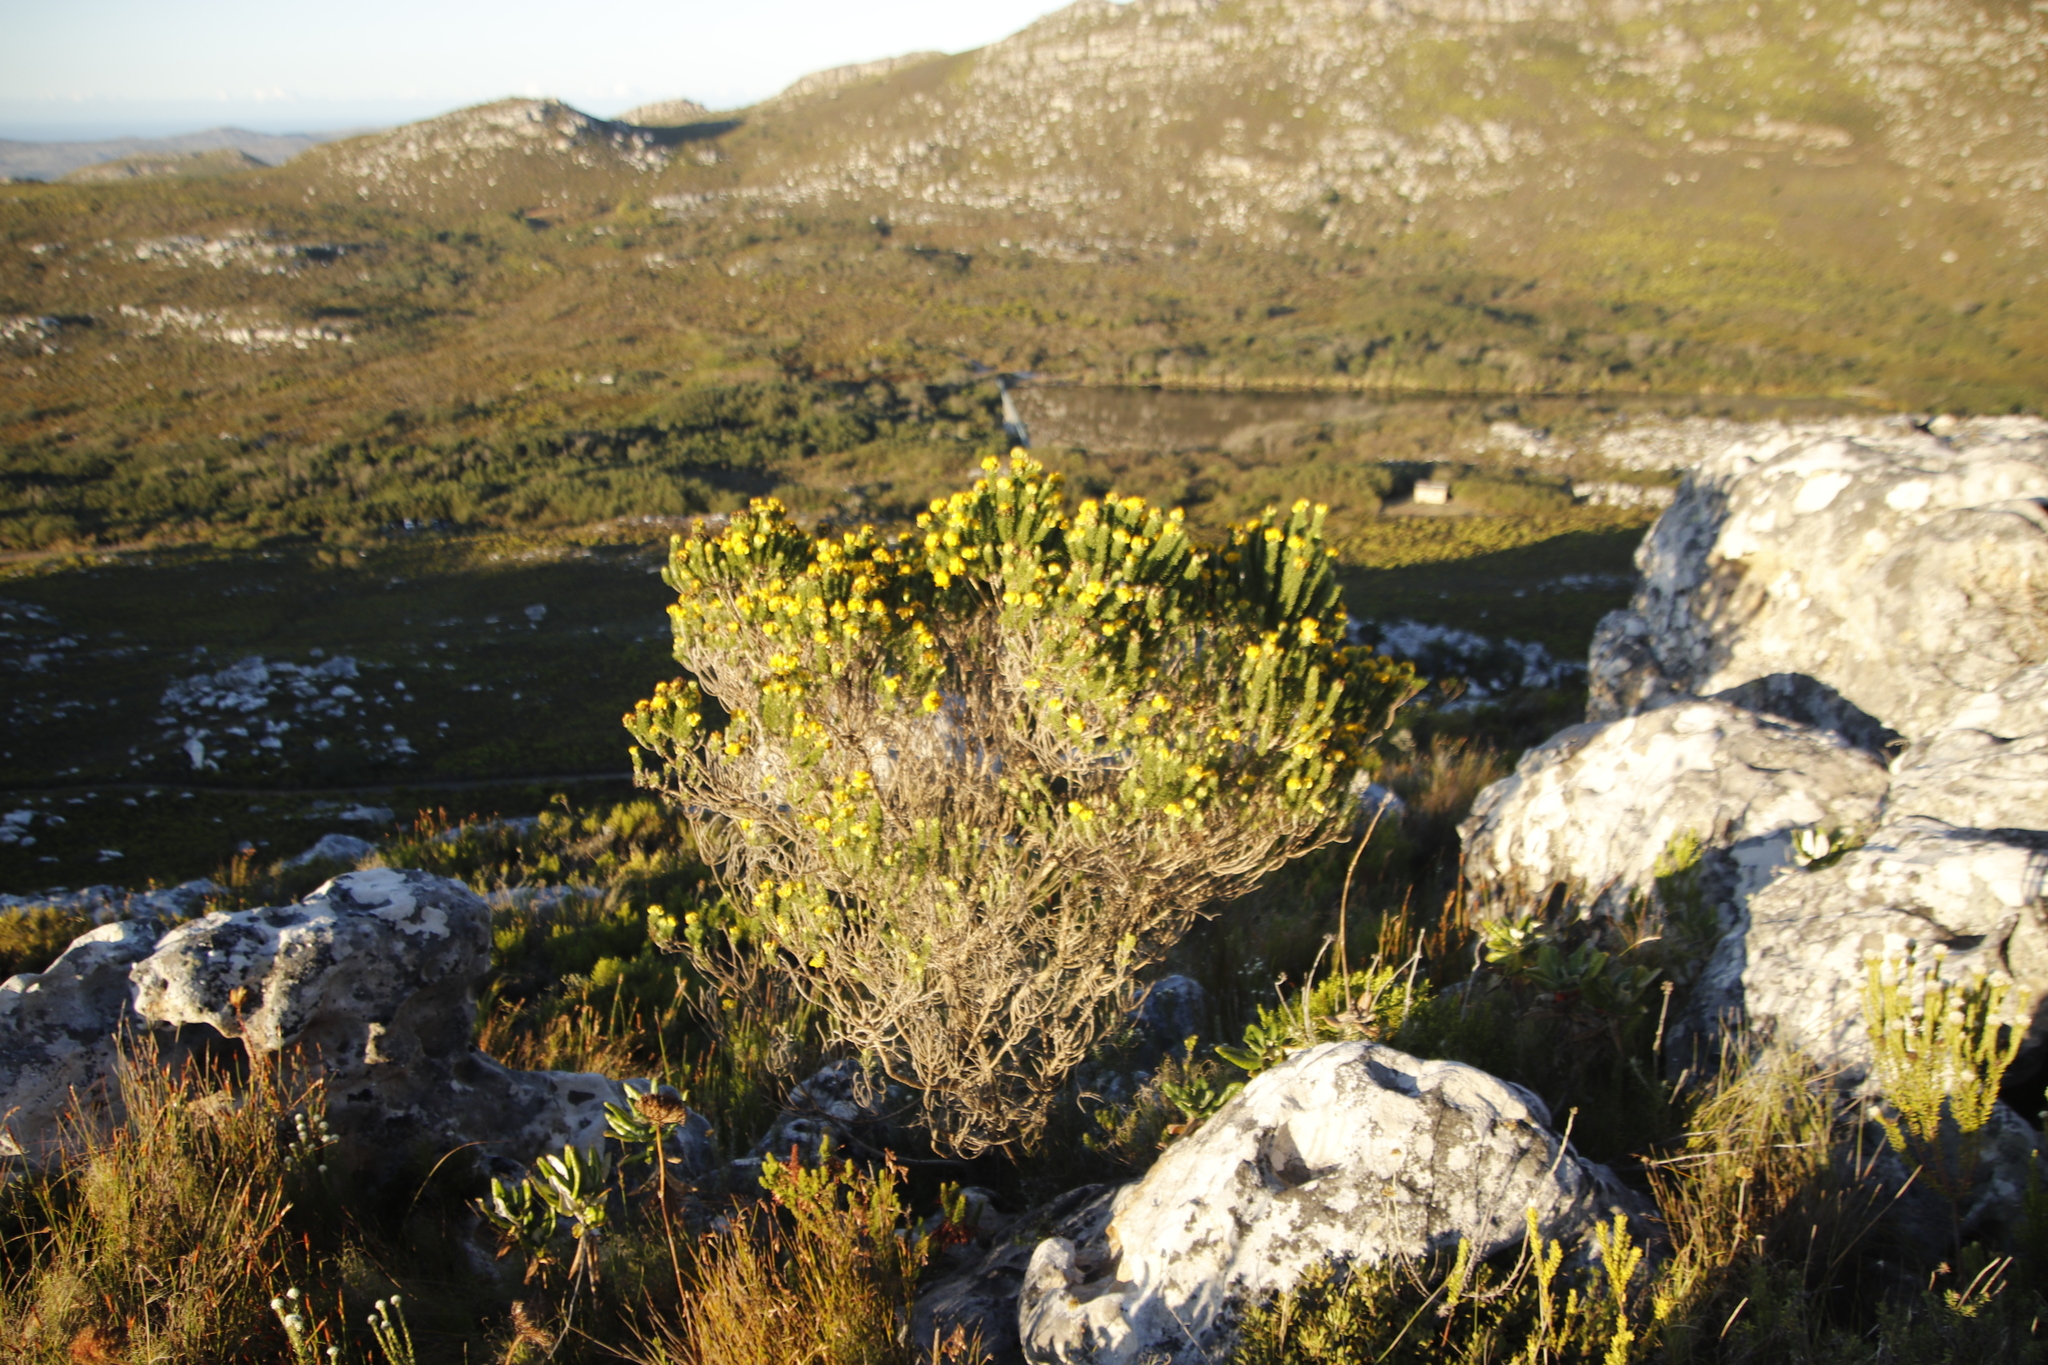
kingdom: Plantae
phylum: Tracheophyta
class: Magnoliopsida
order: Fabales
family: Fabaceae
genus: Aspalathus
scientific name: Aspalathus capitata
